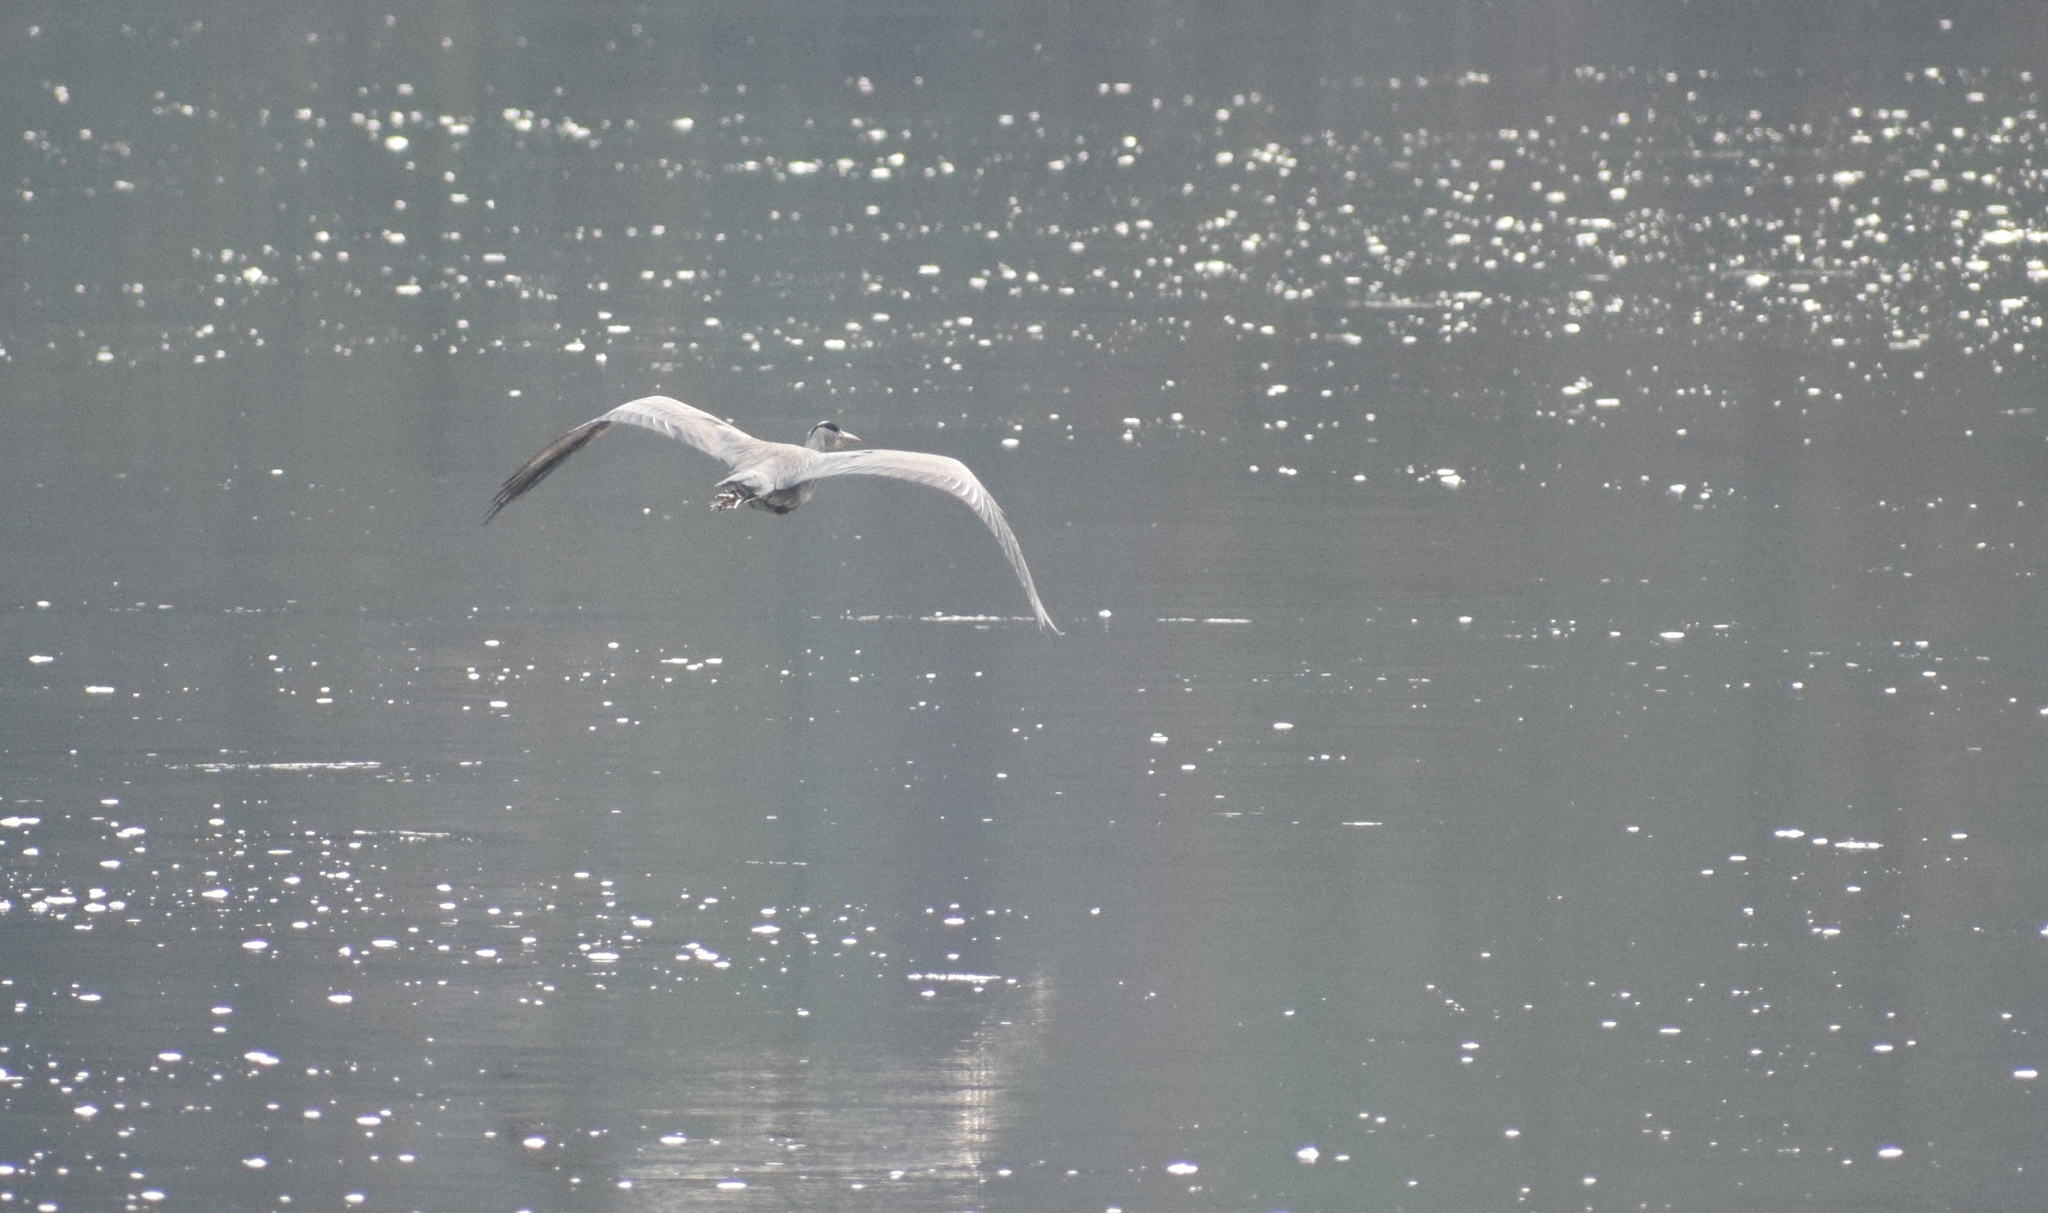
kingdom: Animalia
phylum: Chordata
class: Aves
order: Pelecaniformes
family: Ardeidae
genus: Ardea
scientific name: Ardea cinerea
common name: Grey heron
